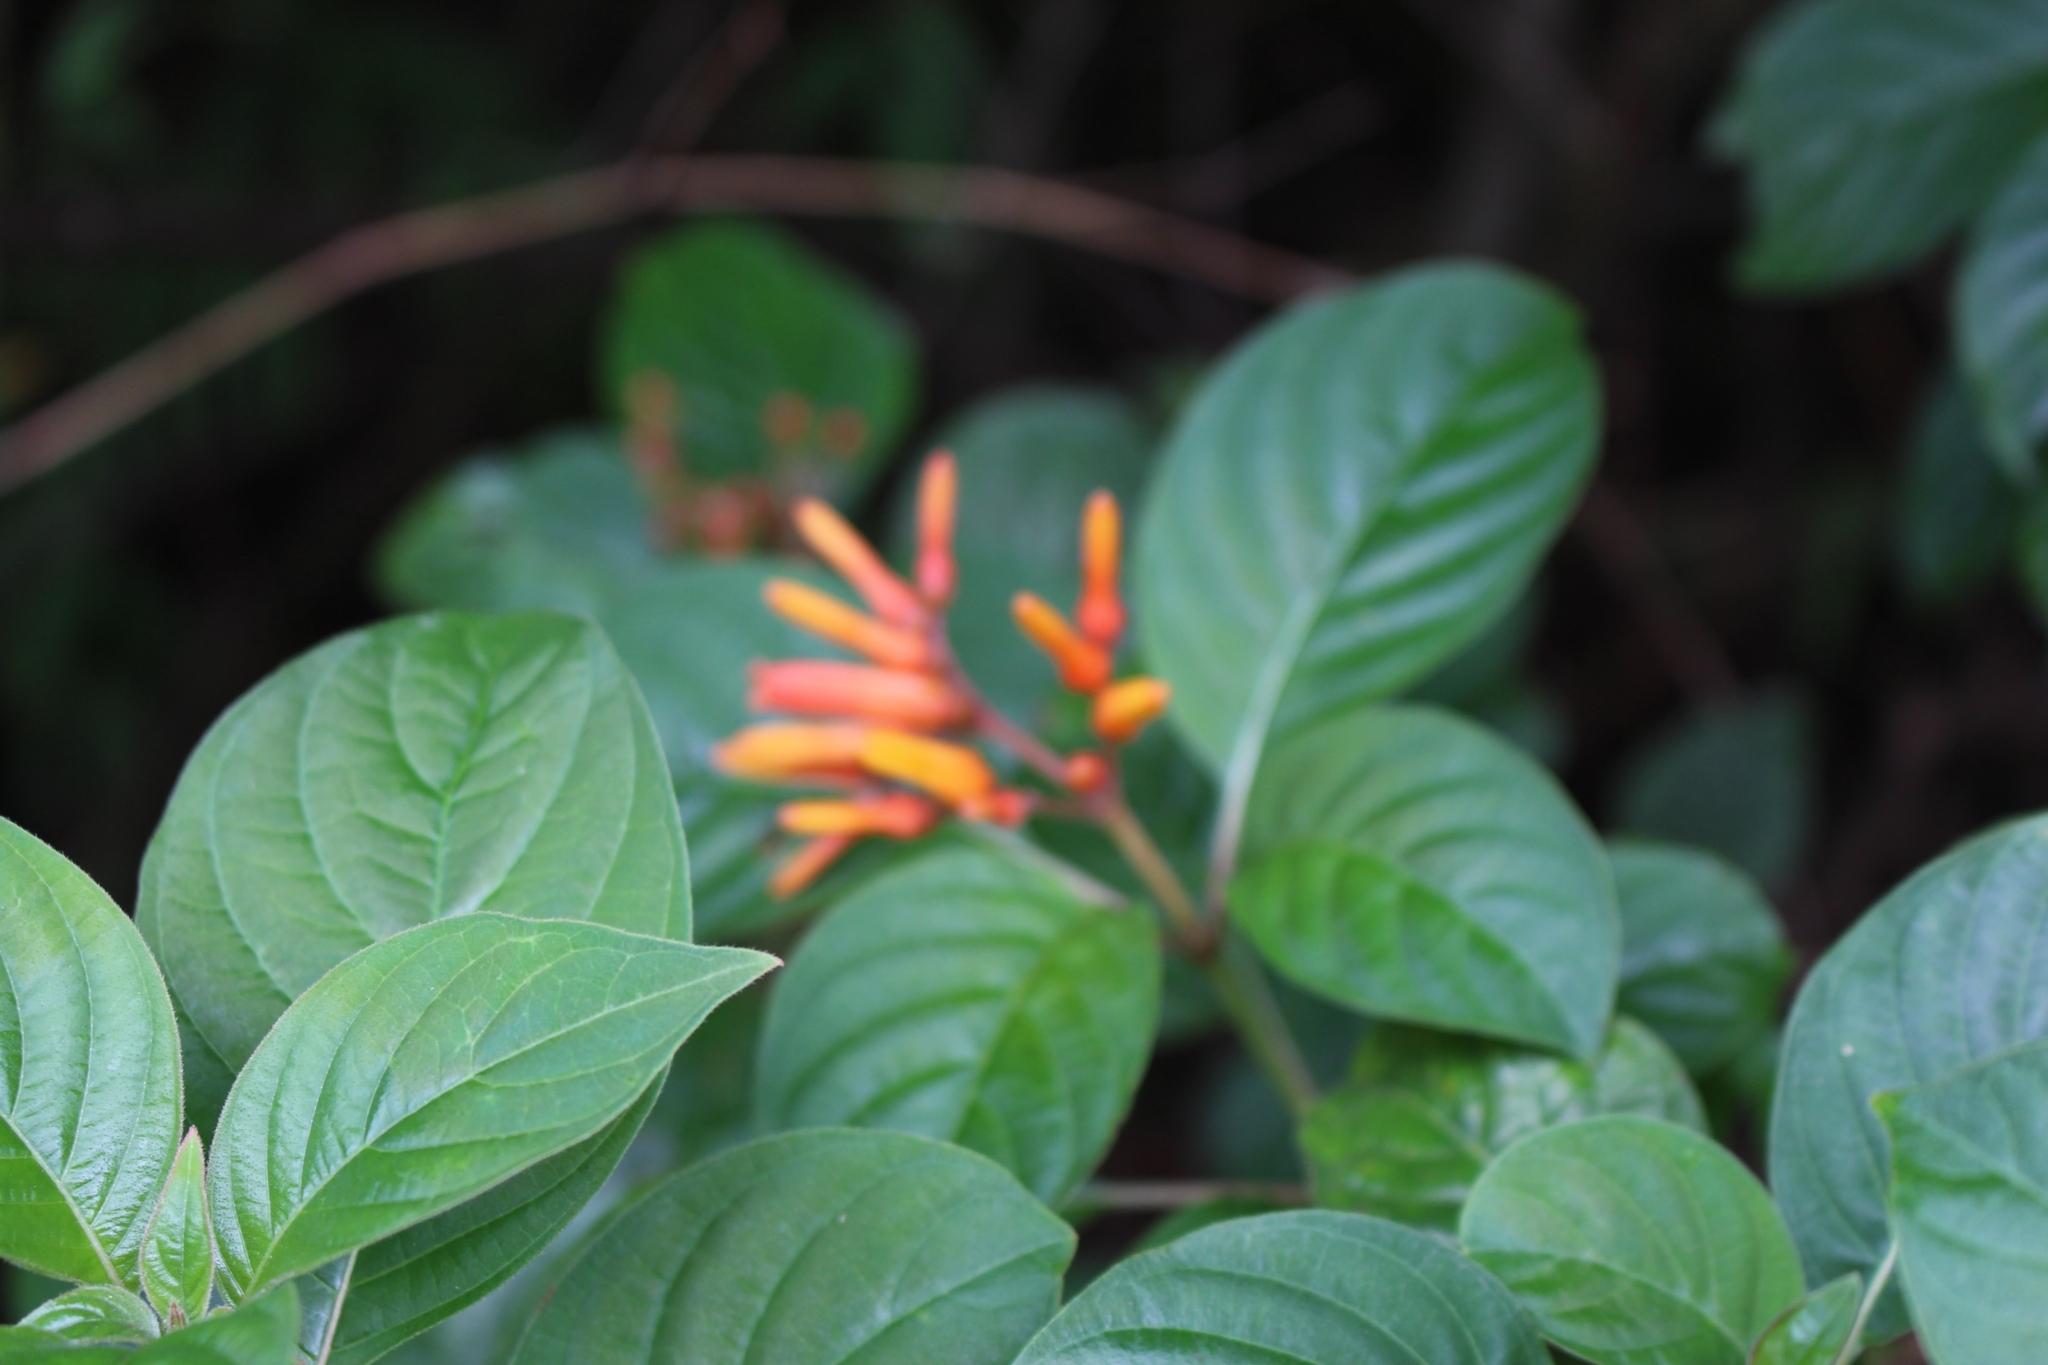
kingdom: Plantae
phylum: Tracheophyta
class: Magnoliopsida
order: Gentianales
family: Rubiaceae
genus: Hamelia
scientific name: Hamelia patens
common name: Redhead
